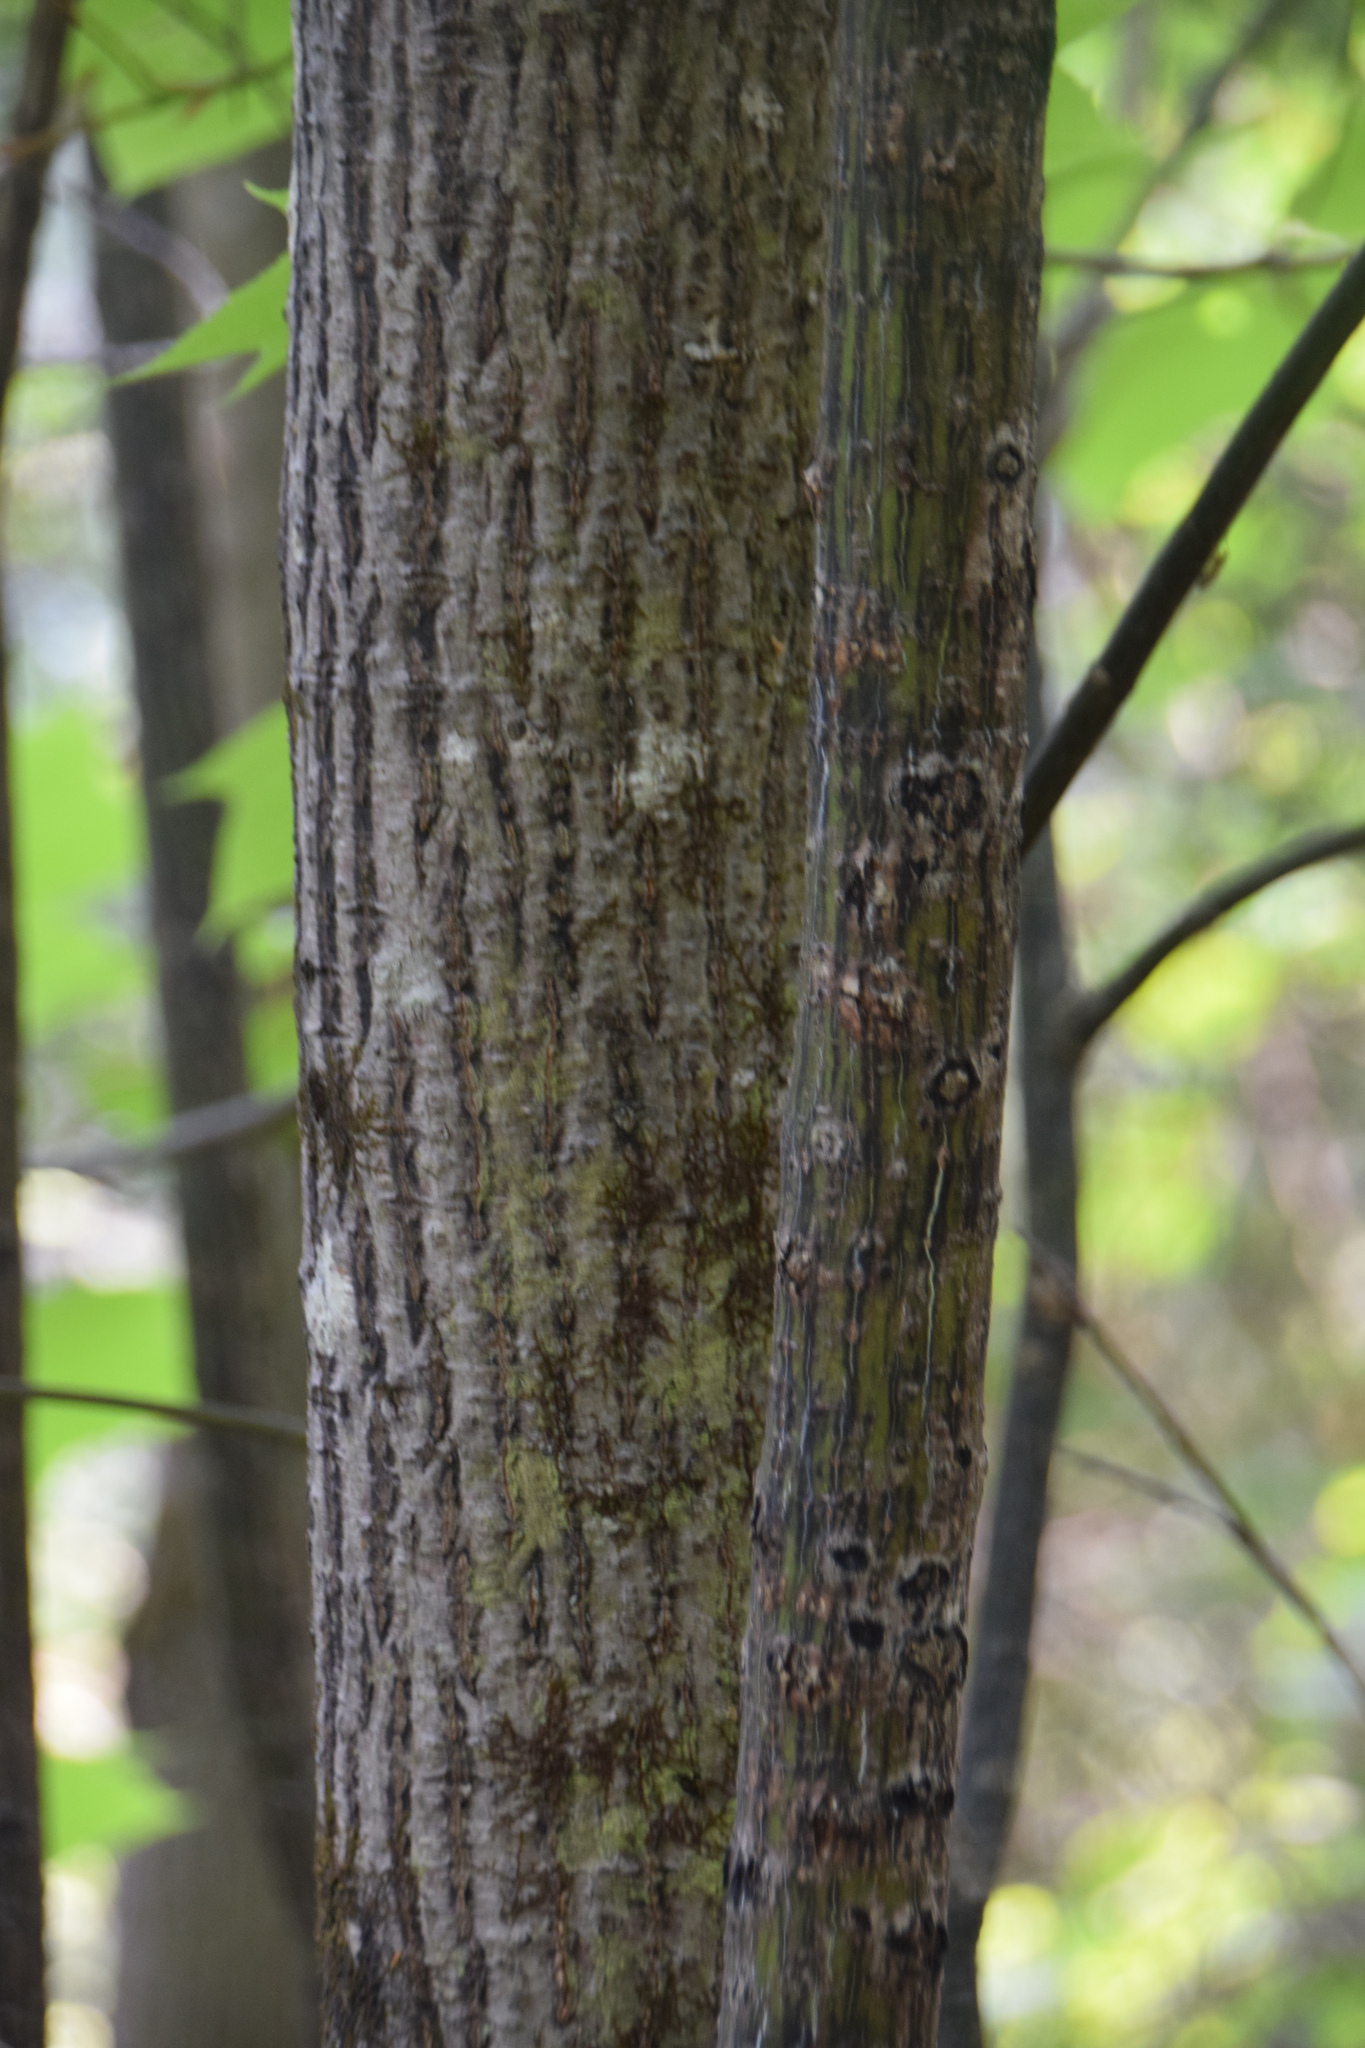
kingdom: Plantae
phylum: Tracheophyta
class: Magnoliopsida
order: Sapindales
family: Sapindaceae
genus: Acer
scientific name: Acer pensylvanicum
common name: Moosewood
